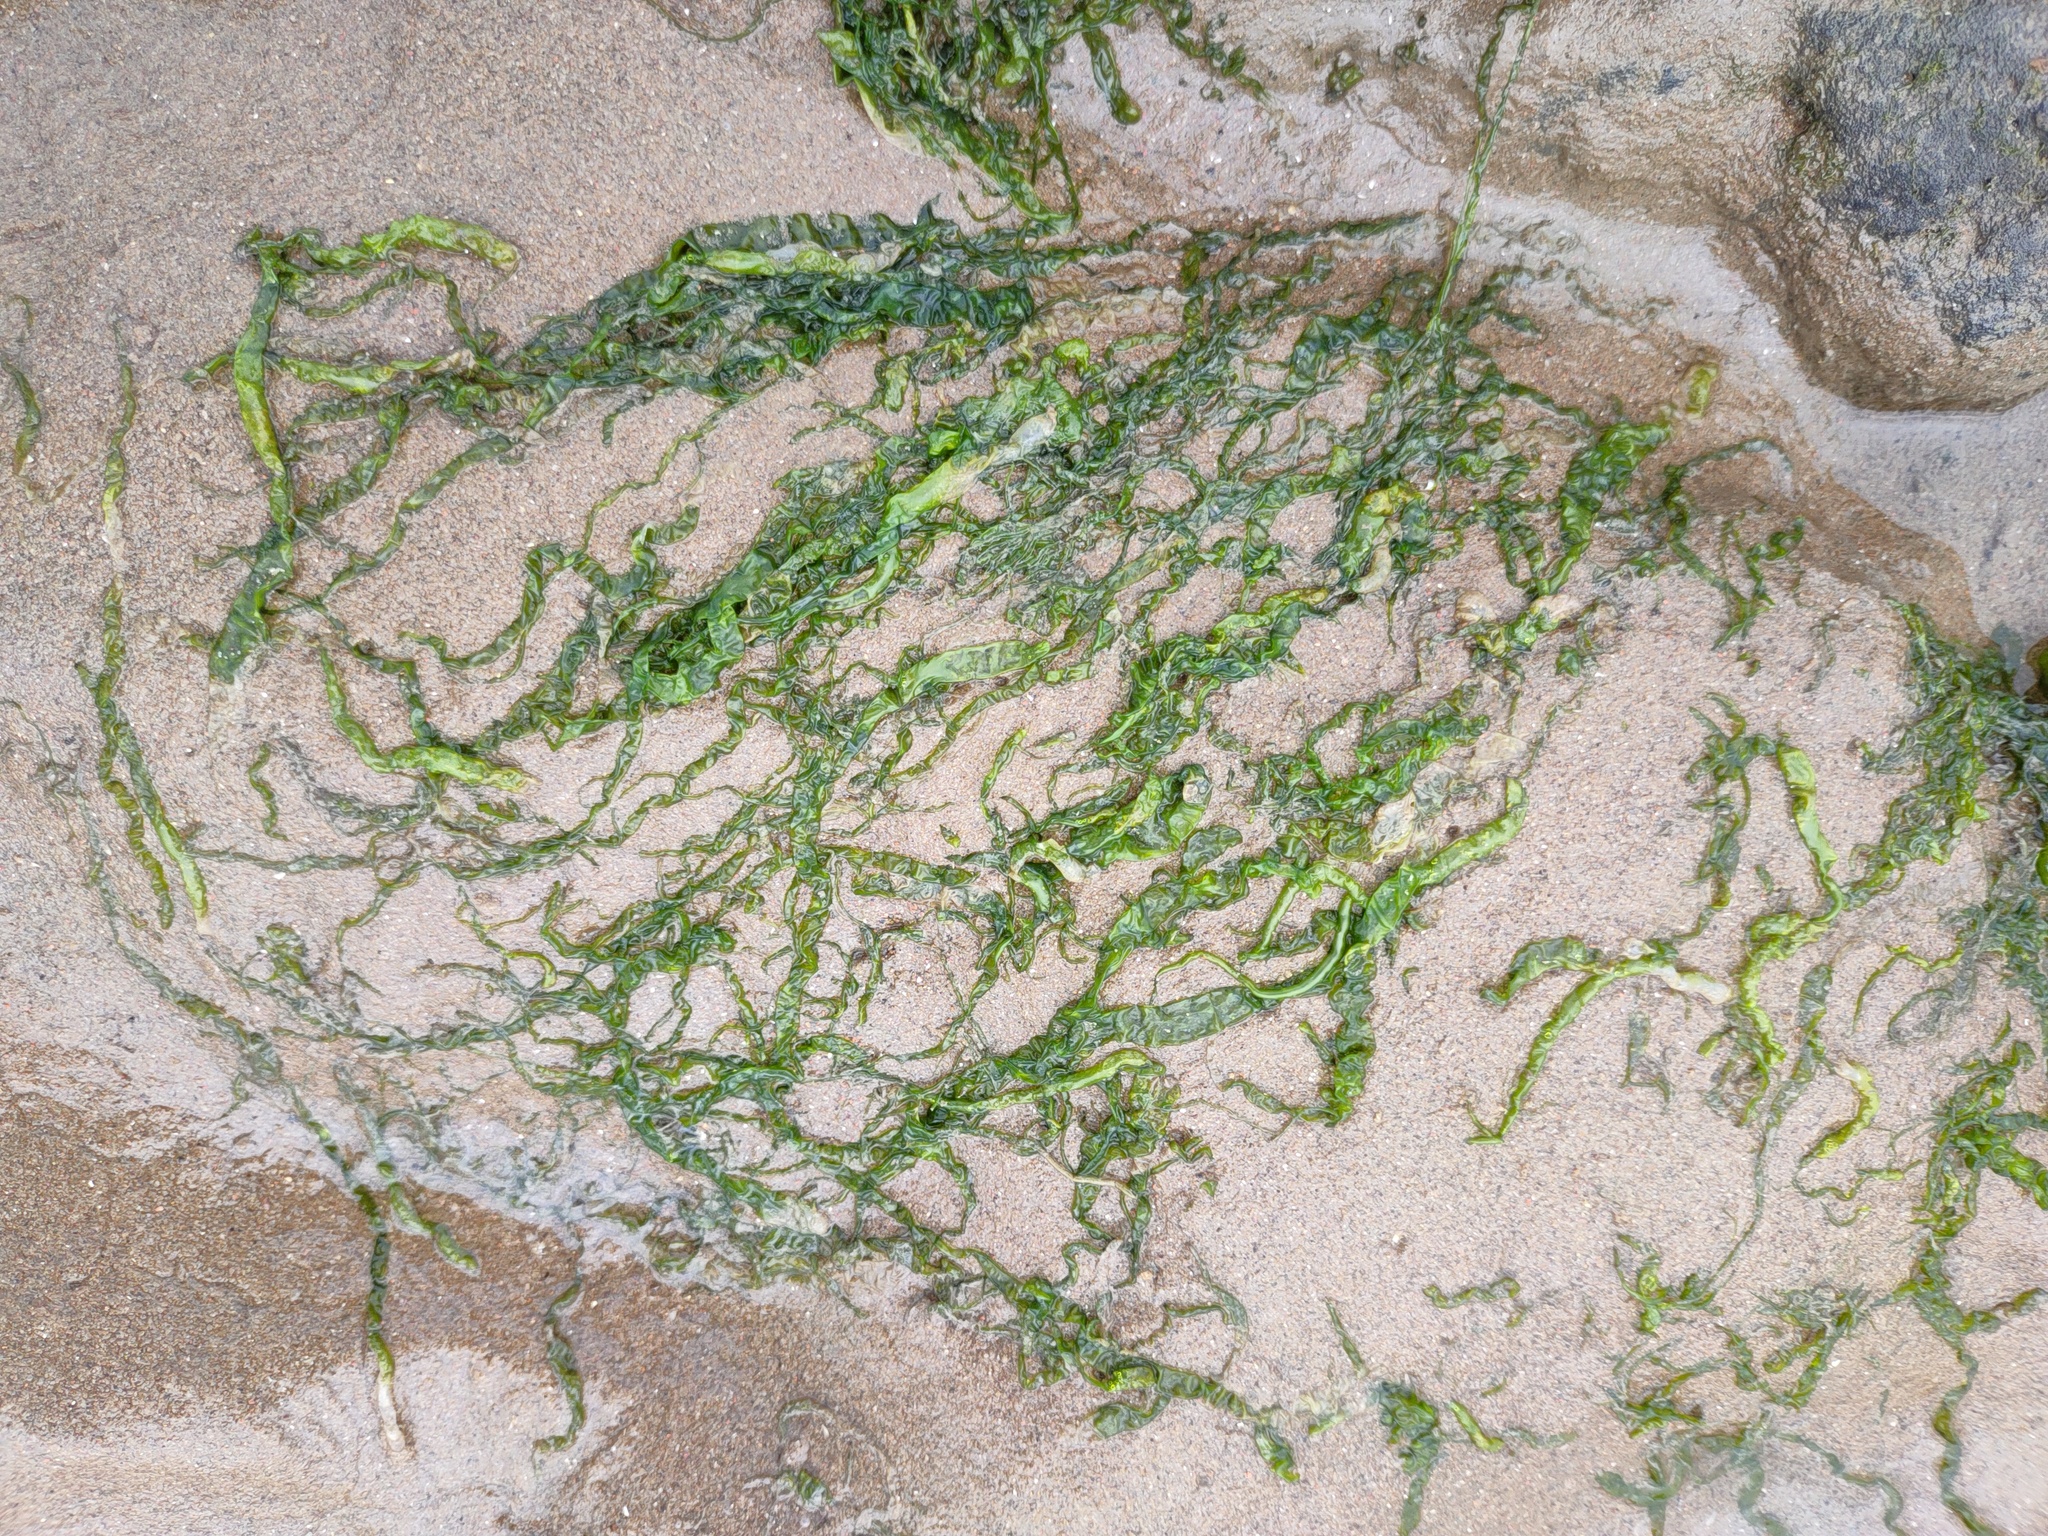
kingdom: Plantae
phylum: Chlorophyta
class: Ulvophyceae
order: Ulvales
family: Ulvaceae
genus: Ulva
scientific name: Ulva intestinalis
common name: Gut weed
